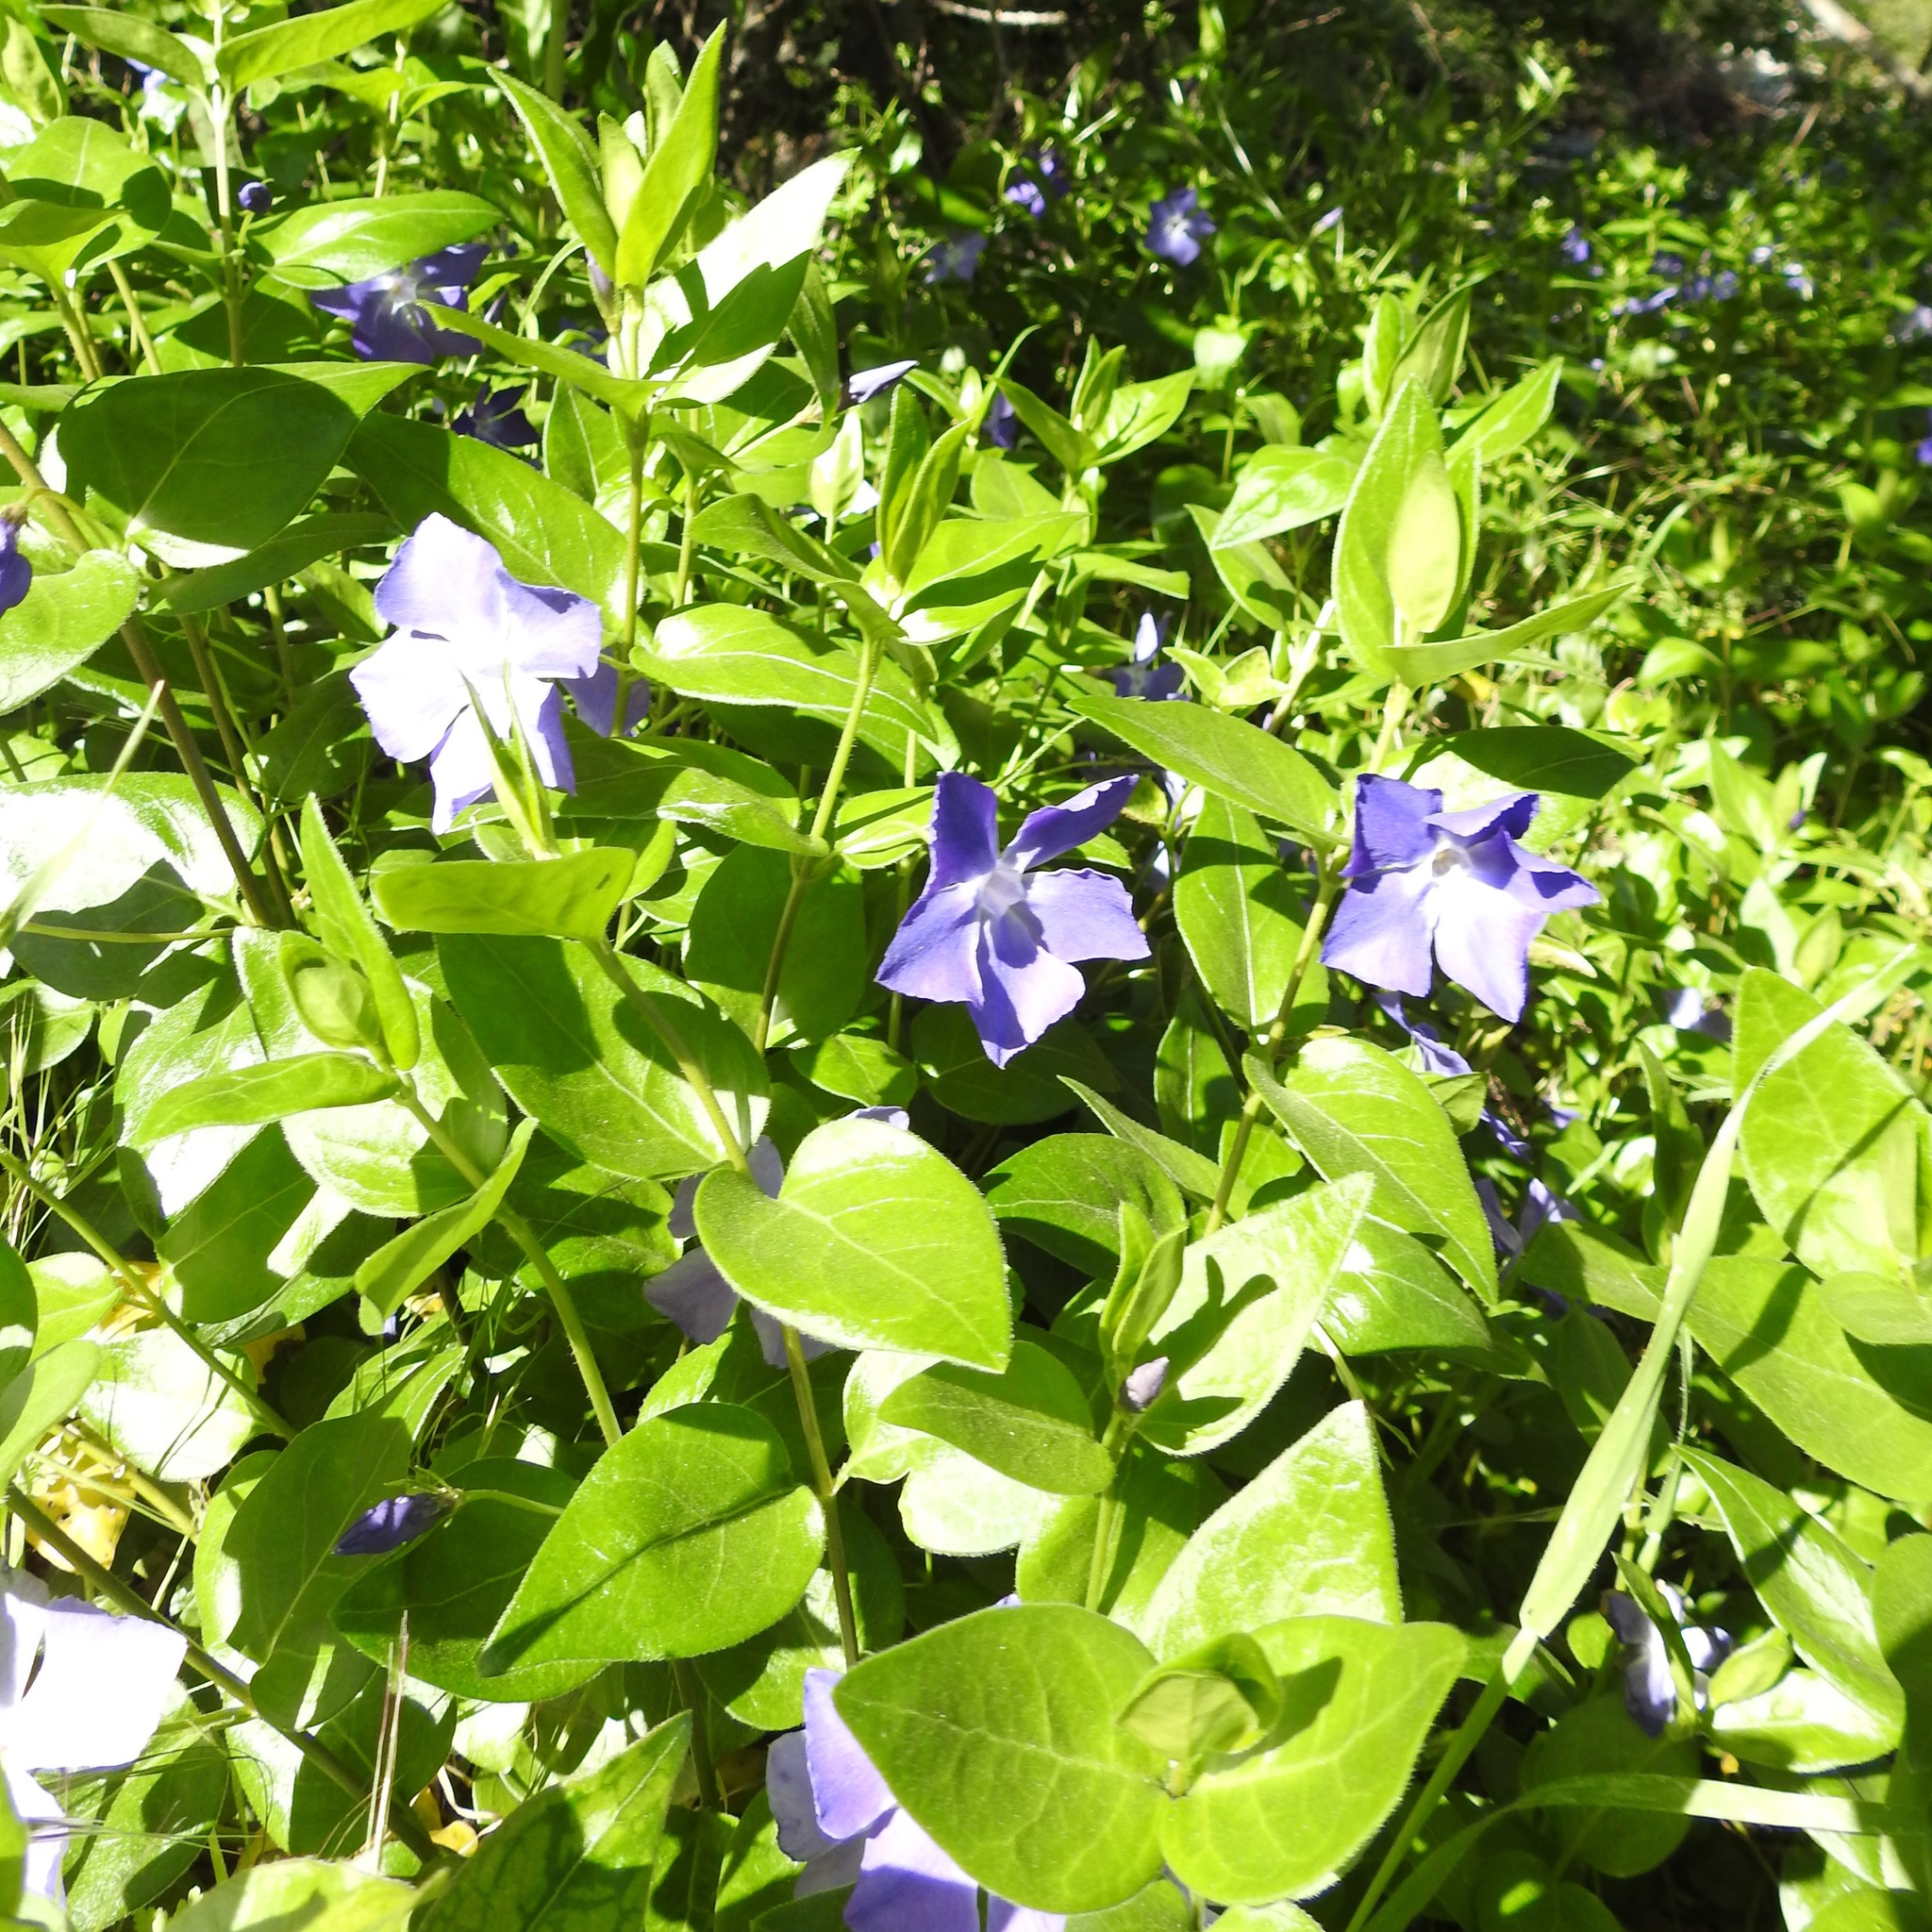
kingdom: Plantae
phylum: Tracheophyta
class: Magnoliopsida
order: Gentianales
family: Apocynaceae
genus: Vinca
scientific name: Vinca major
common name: Greater periwinkle
